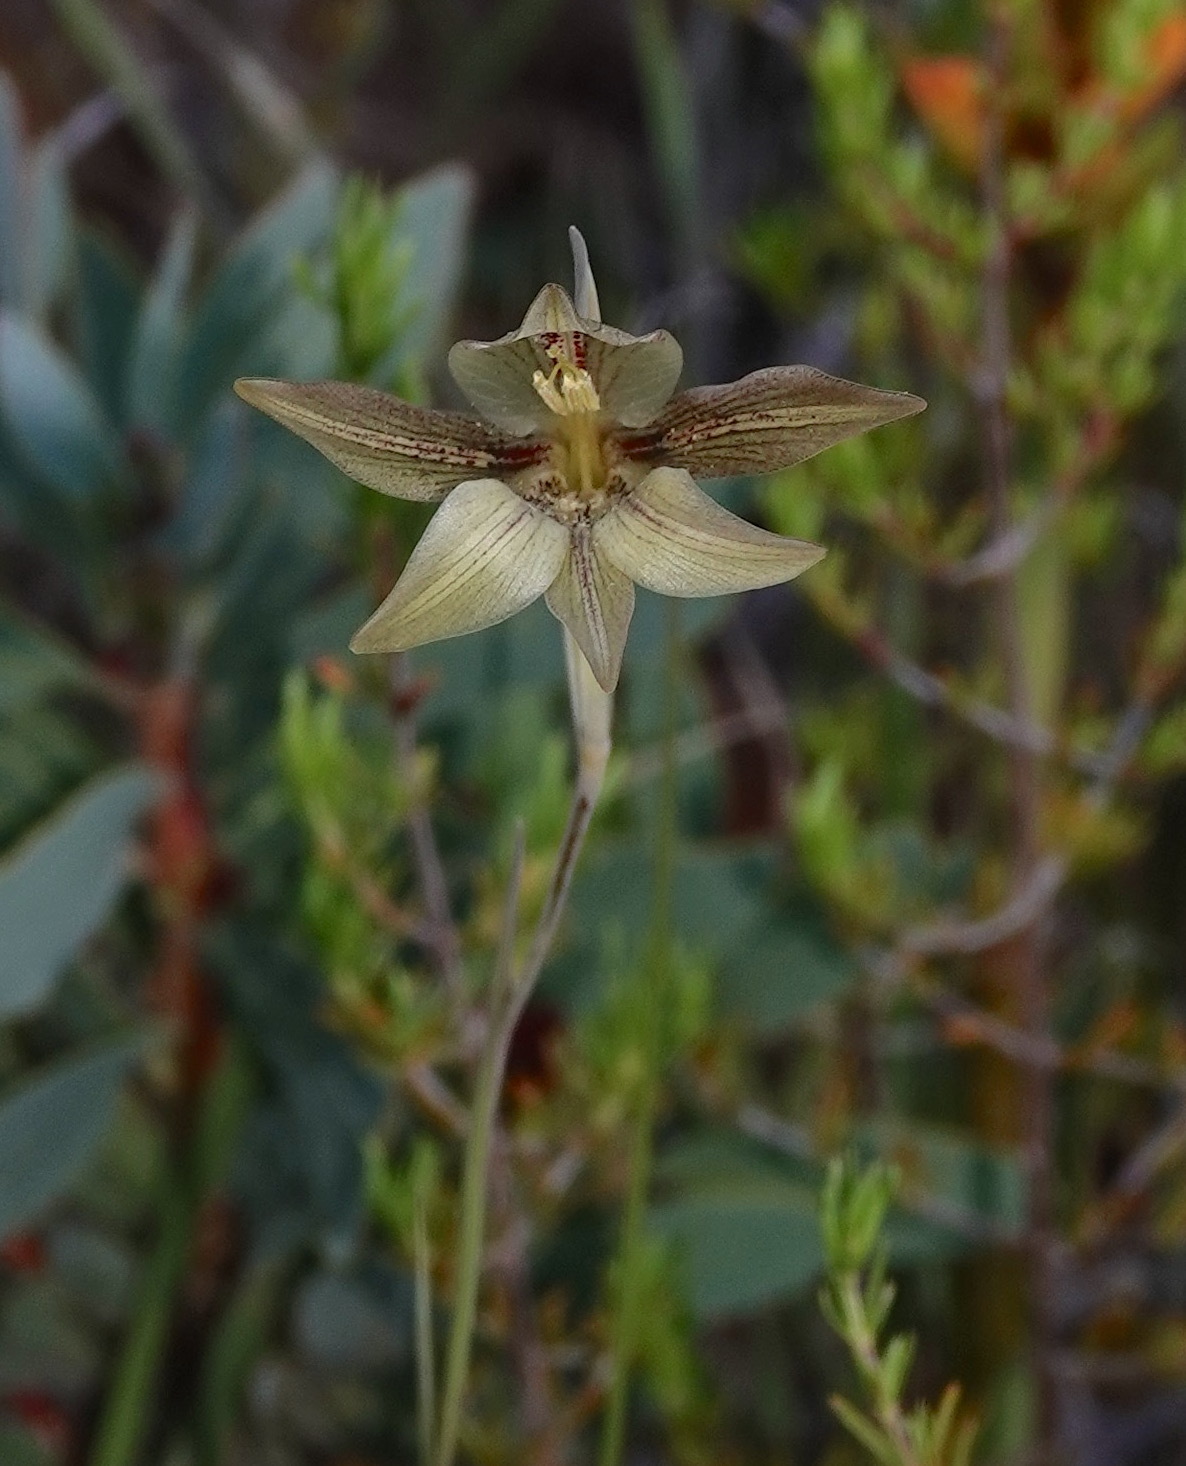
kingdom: Plantae
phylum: Tracheophyta
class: Liliopsida
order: Asparagales
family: Iridaceae
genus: Gladiolus
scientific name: Gladiolus hyalinus
